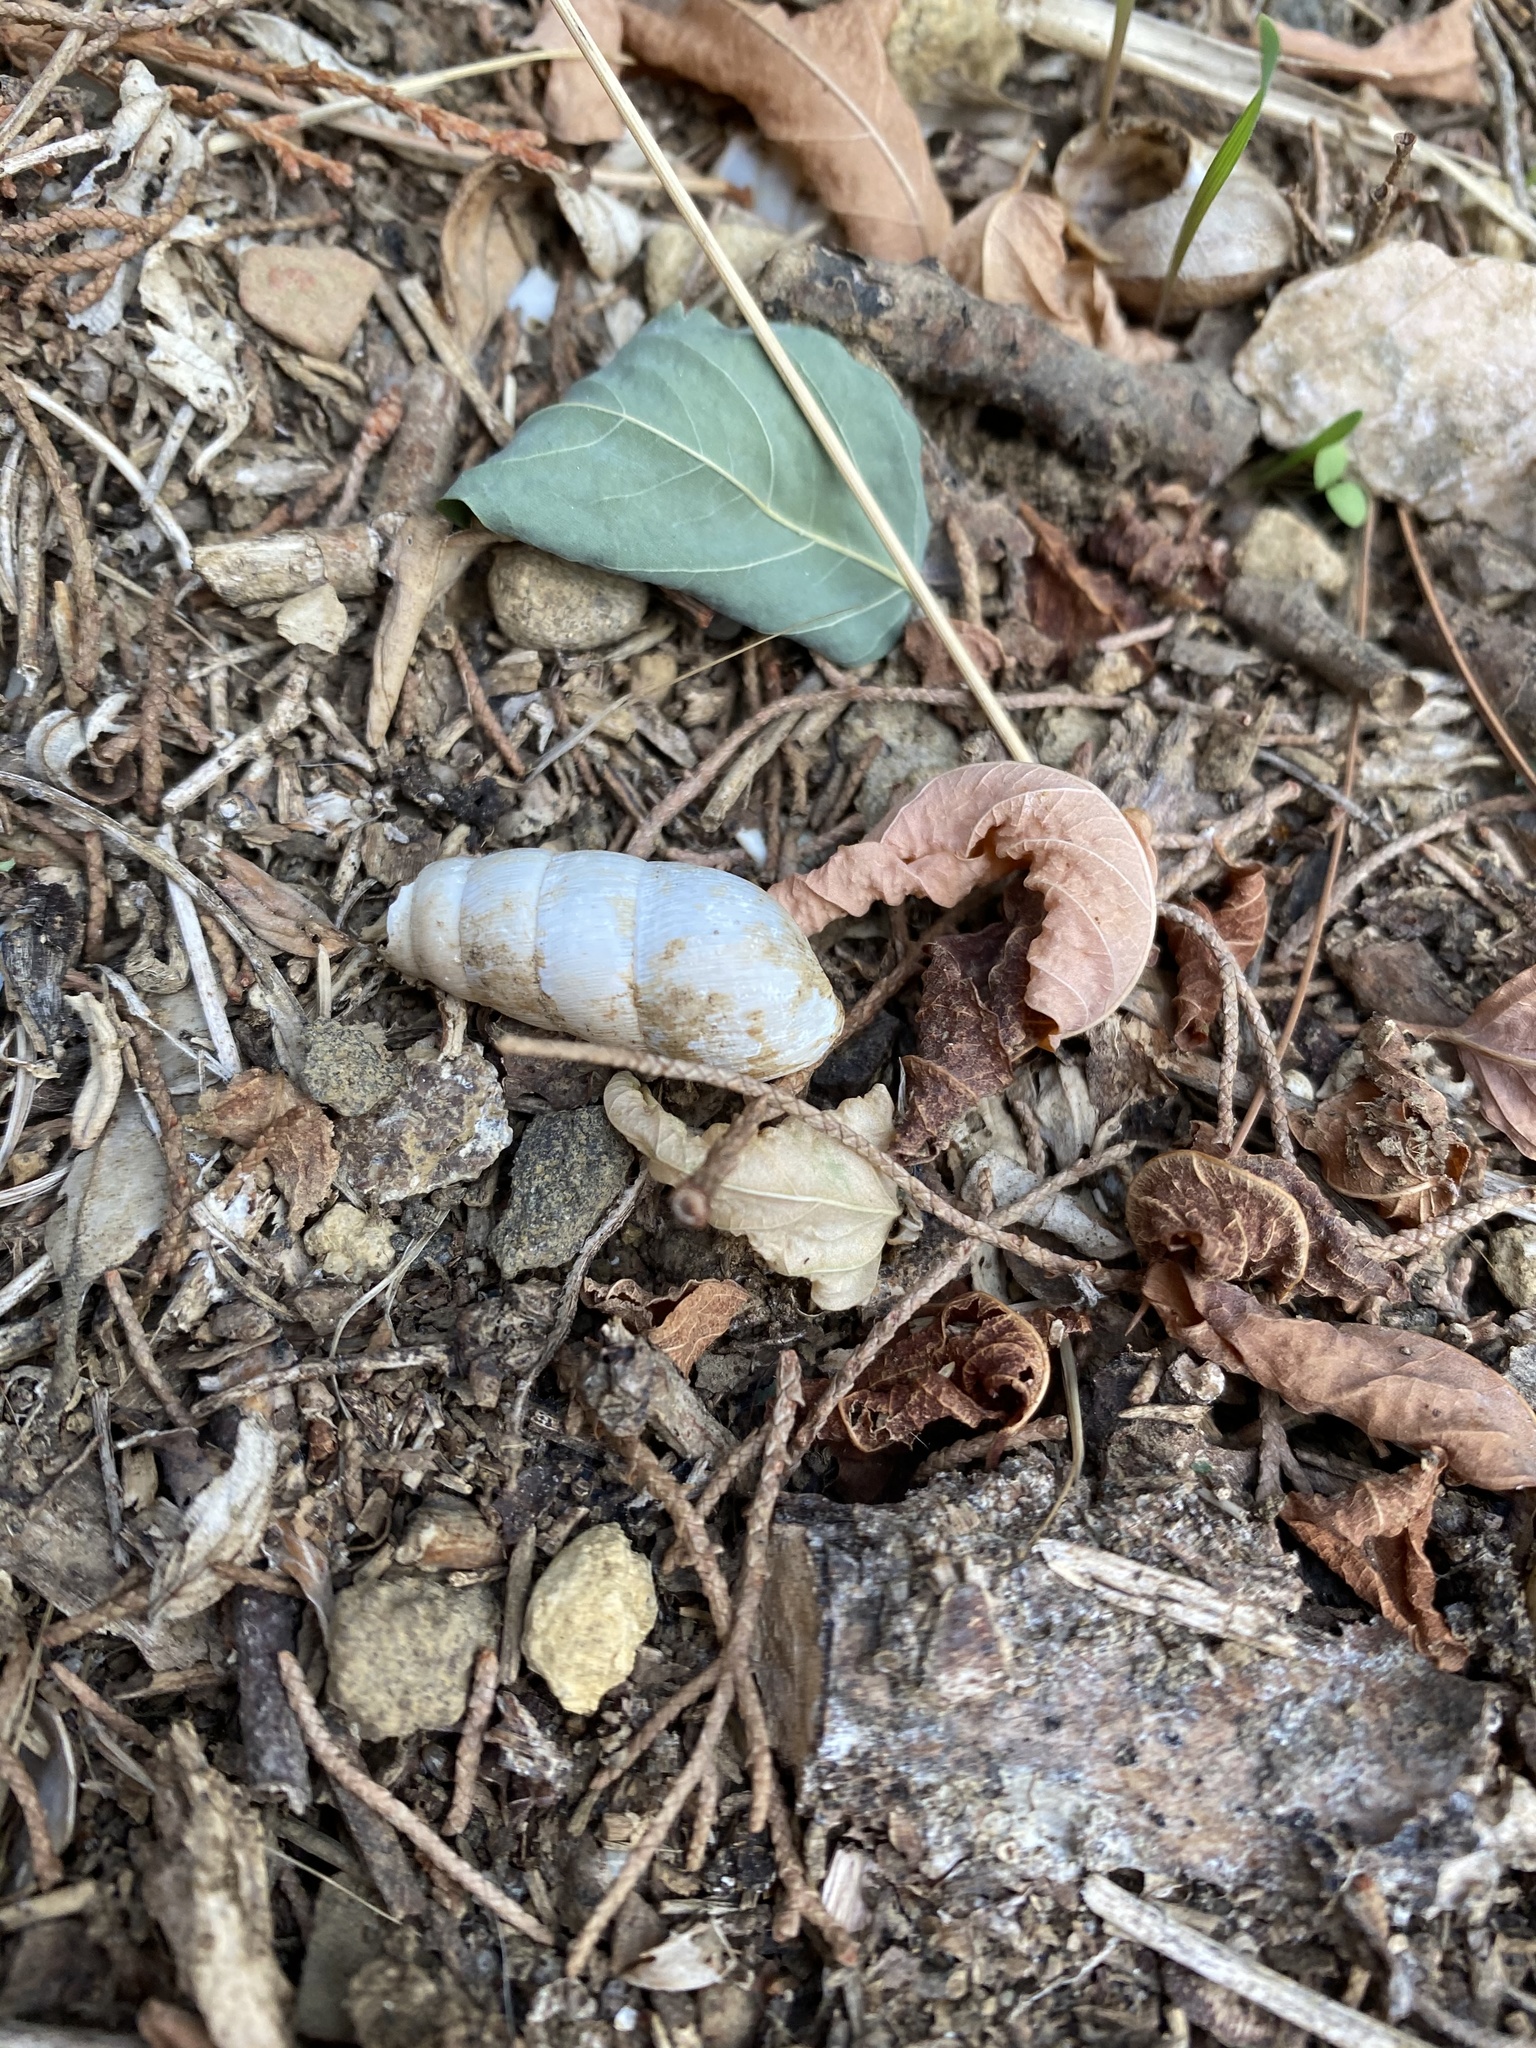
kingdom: Animalia
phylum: Mollusca
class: Gastropoda
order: Stylommatophora
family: Achatinidae
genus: Rumina
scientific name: Rumina decollata
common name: Decollate snail
